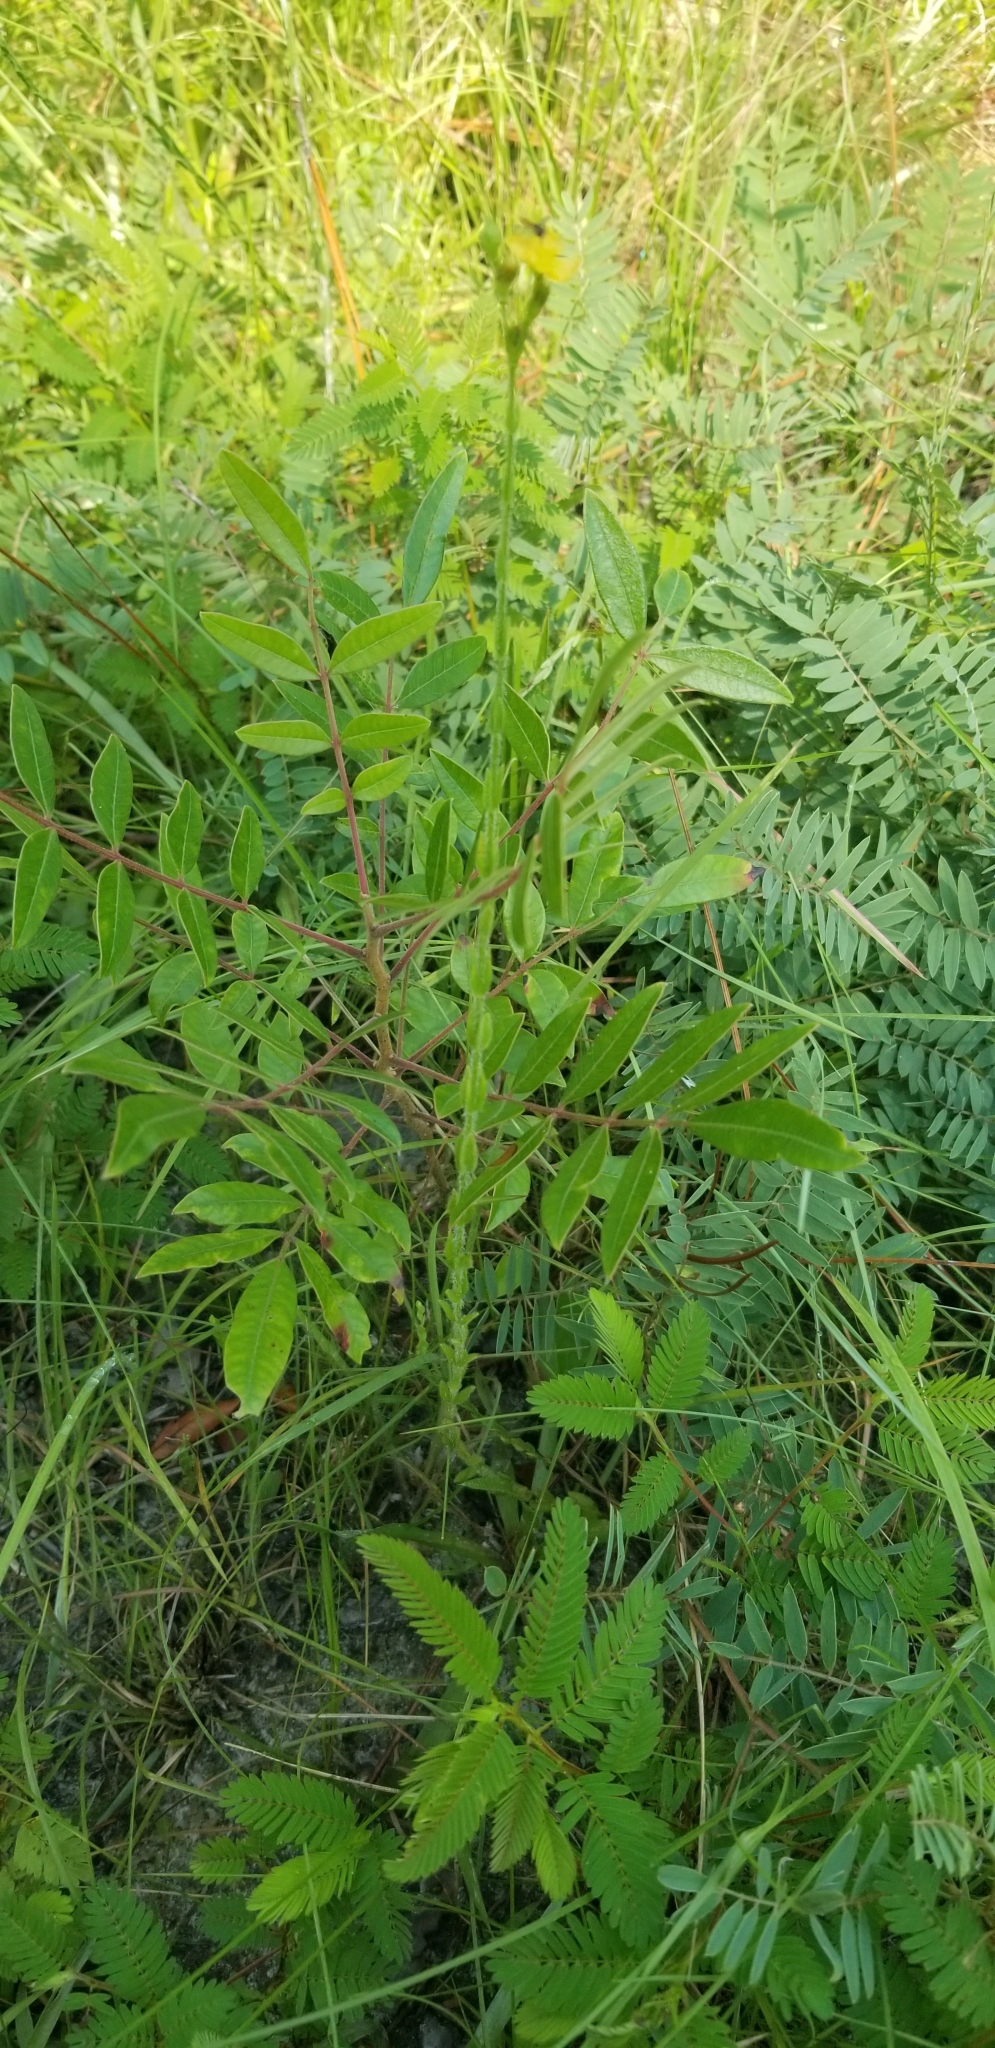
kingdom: Plantae
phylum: Tracheophyta
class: Magnoliopsida
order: Malpighiales
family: Hypericaceae
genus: Hypericum
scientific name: Hypericum setosum
